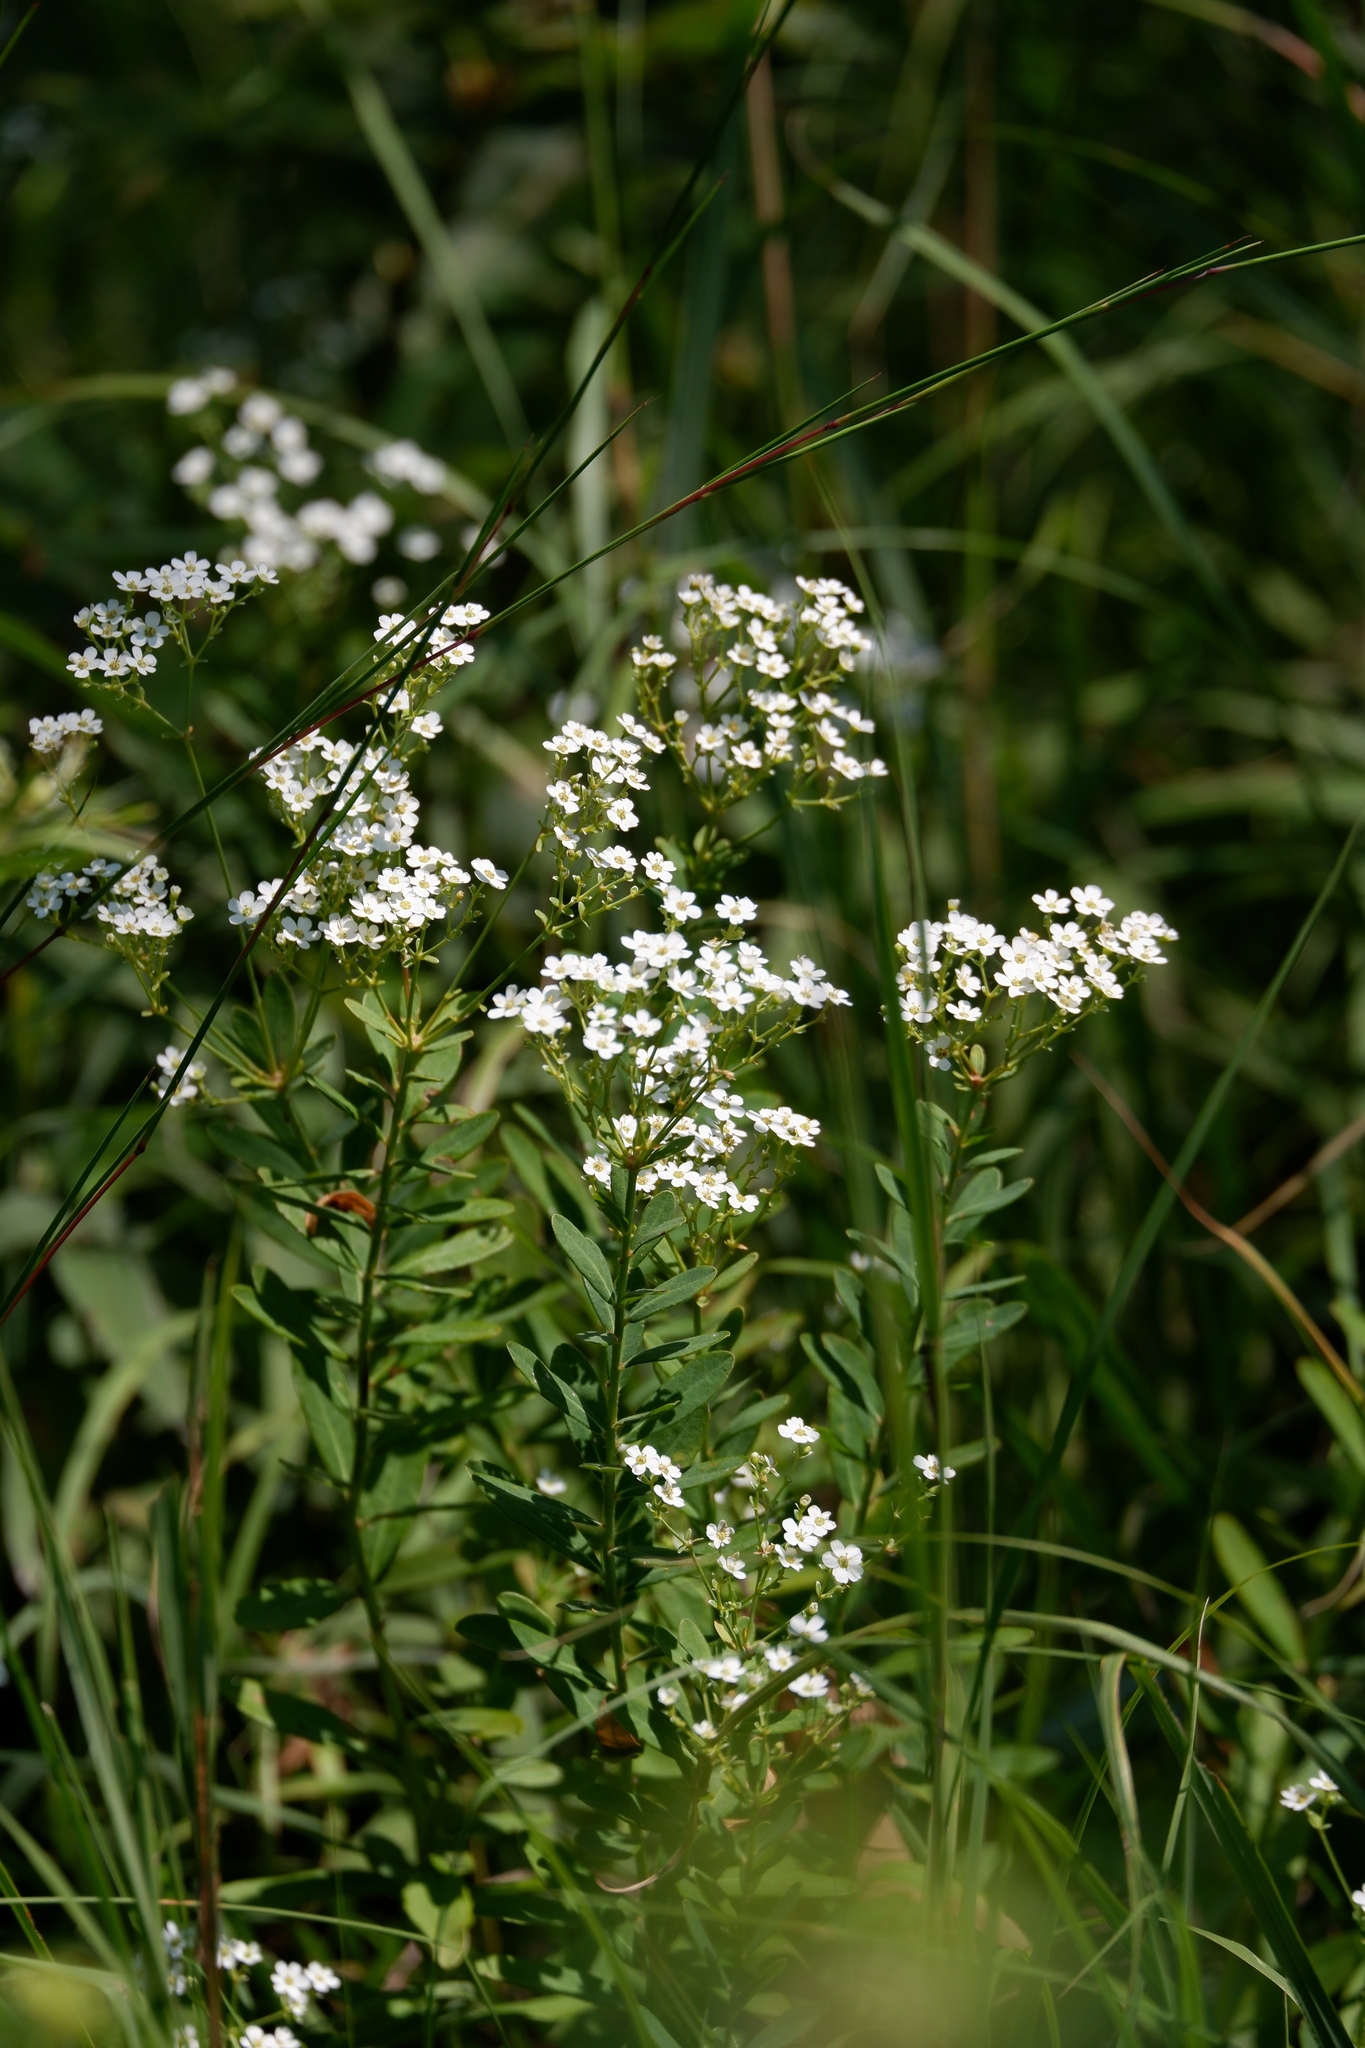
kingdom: Plantae
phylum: Tracheophyta
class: Magnoliopsida
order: Malpighiales
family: Euphorbiaceae
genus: Euphorbia
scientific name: Euphorbia corollata
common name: Flowering spurge
